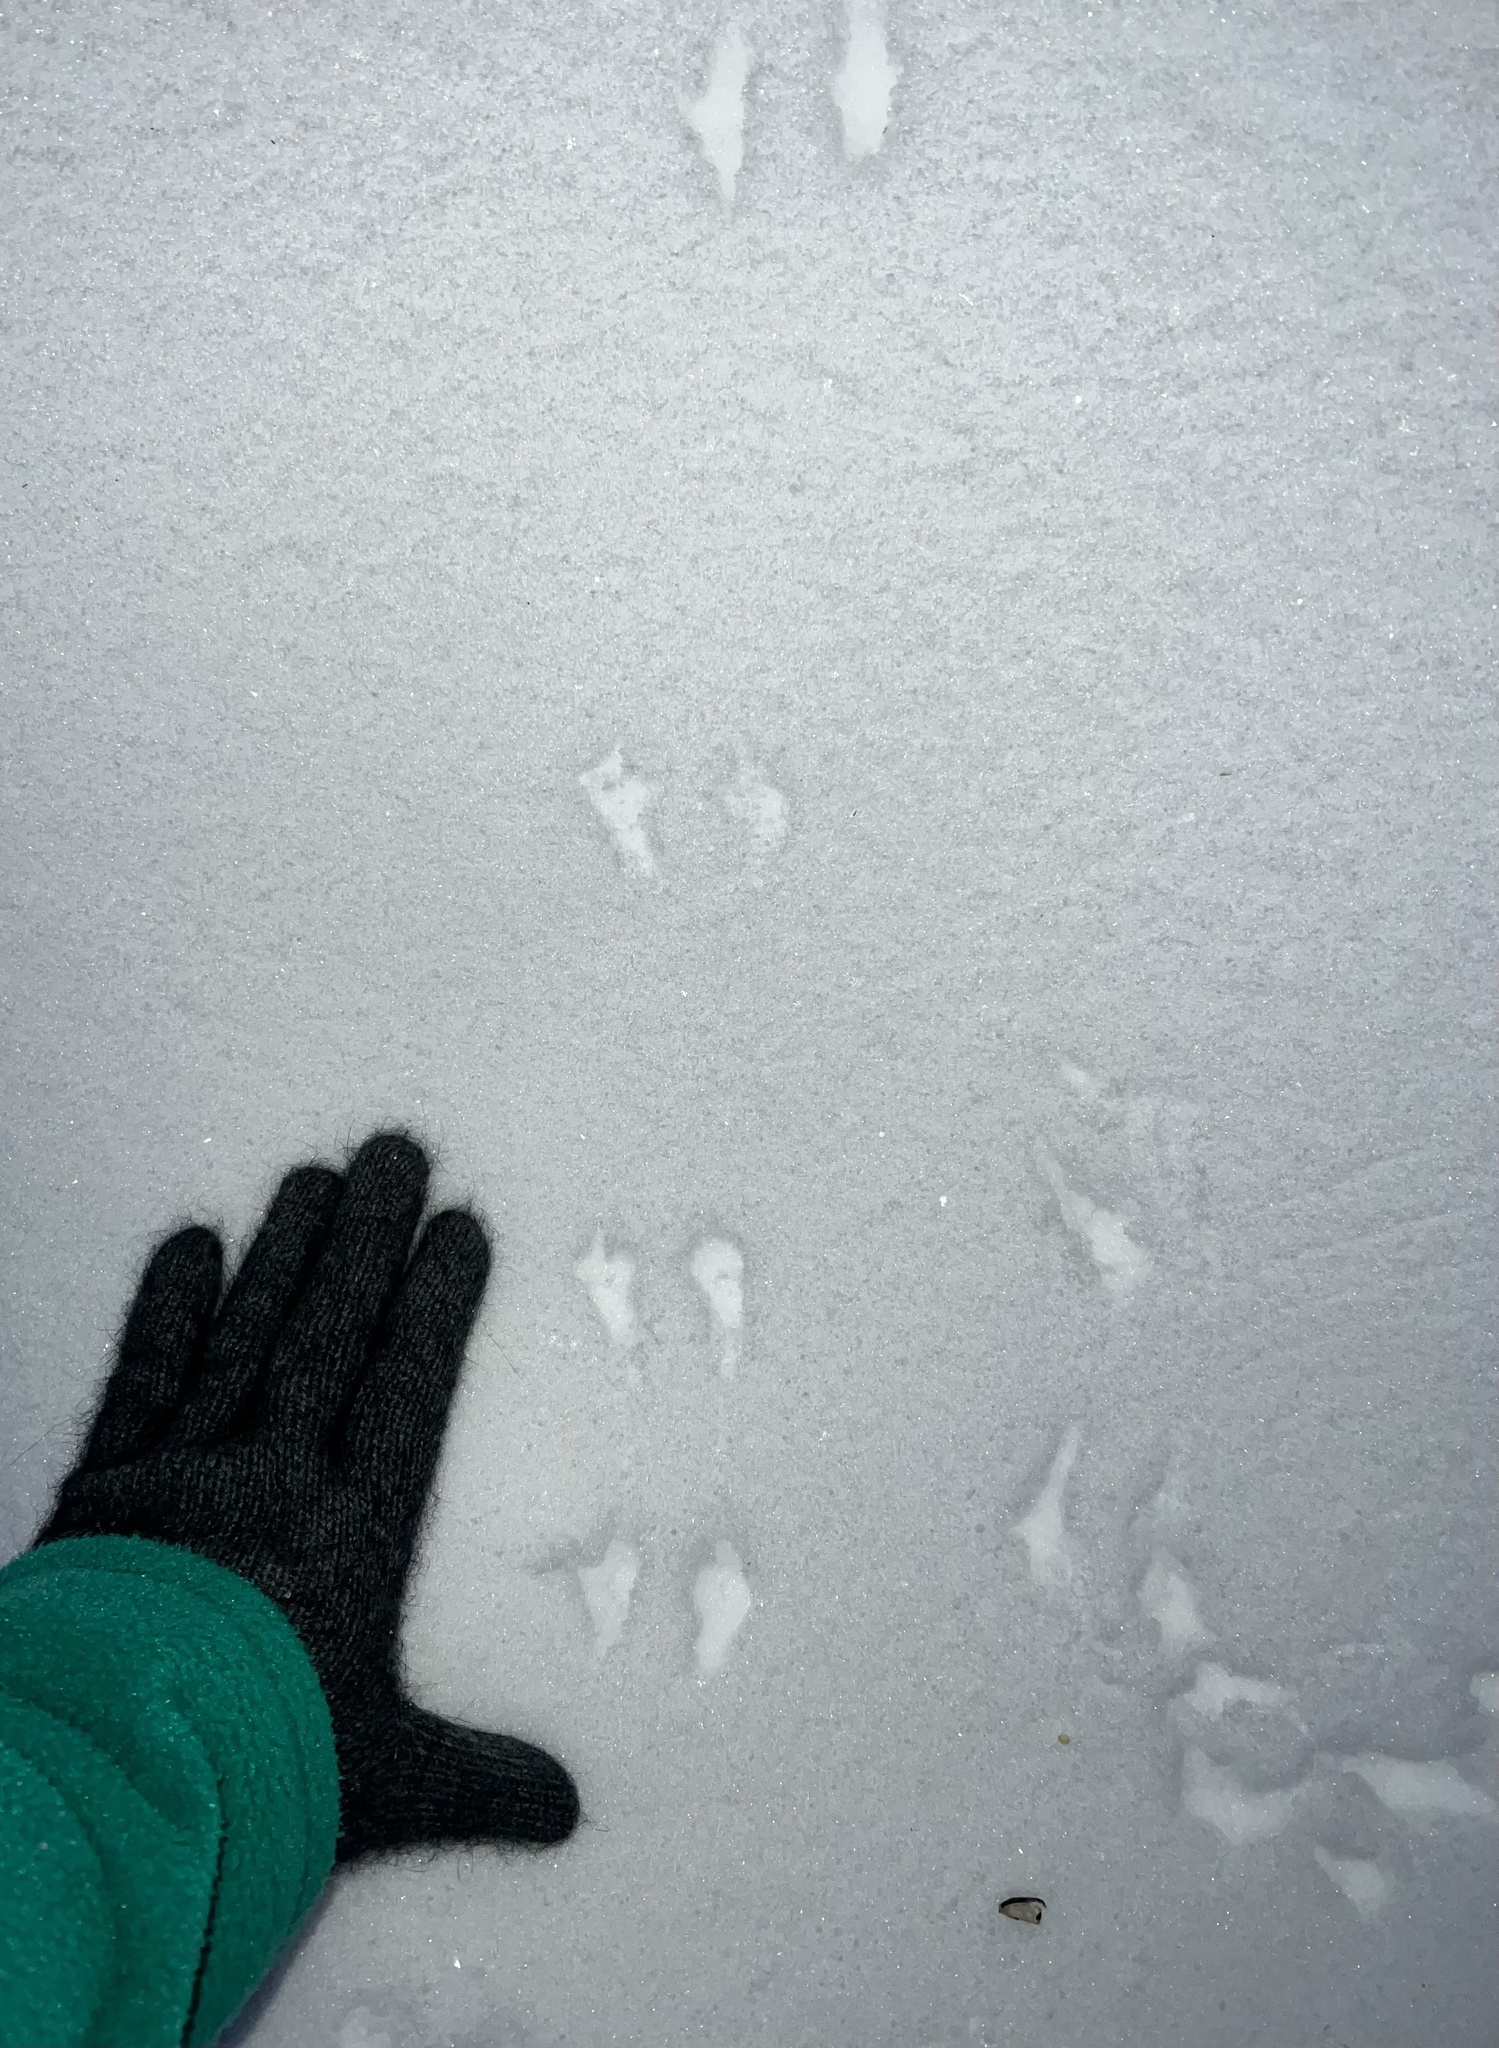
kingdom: Animalia
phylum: Chordata
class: Aves
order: Passeriformes
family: Passerellidae
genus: Junco
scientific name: Junco hyemalis
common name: Dark-eyed junco
